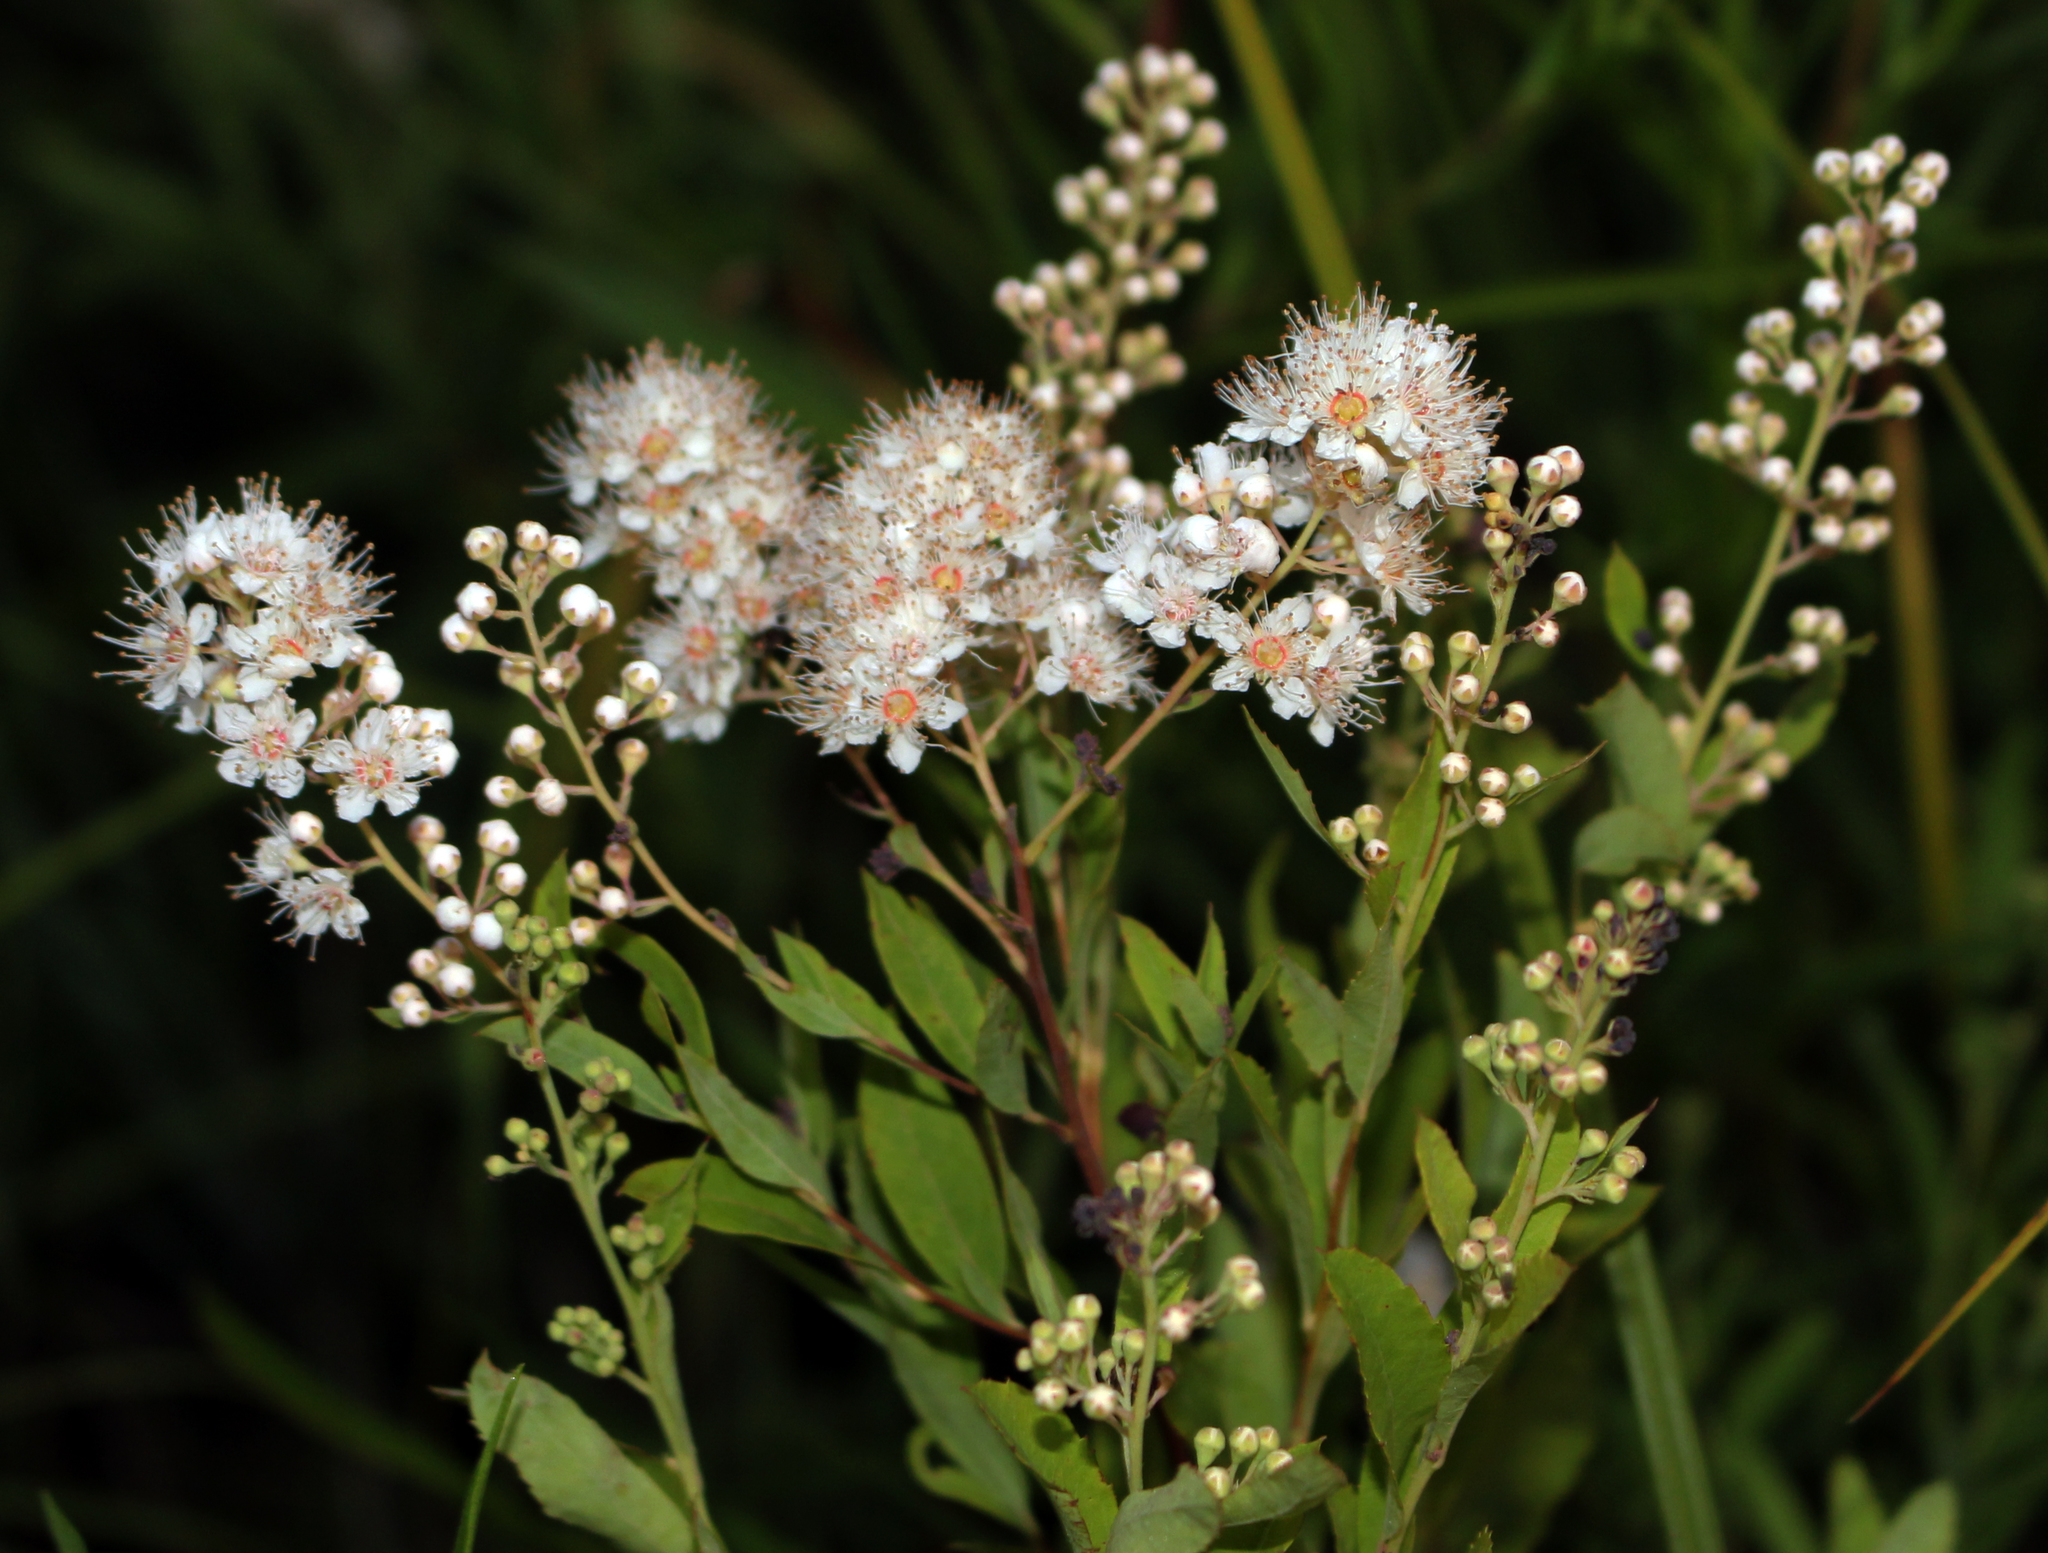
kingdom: Plantae
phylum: Tracheophyta
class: Magnoliopsida
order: Rosales
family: Rosaceae
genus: Spiraea
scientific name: Spiraea alba
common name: Pale bridewort
